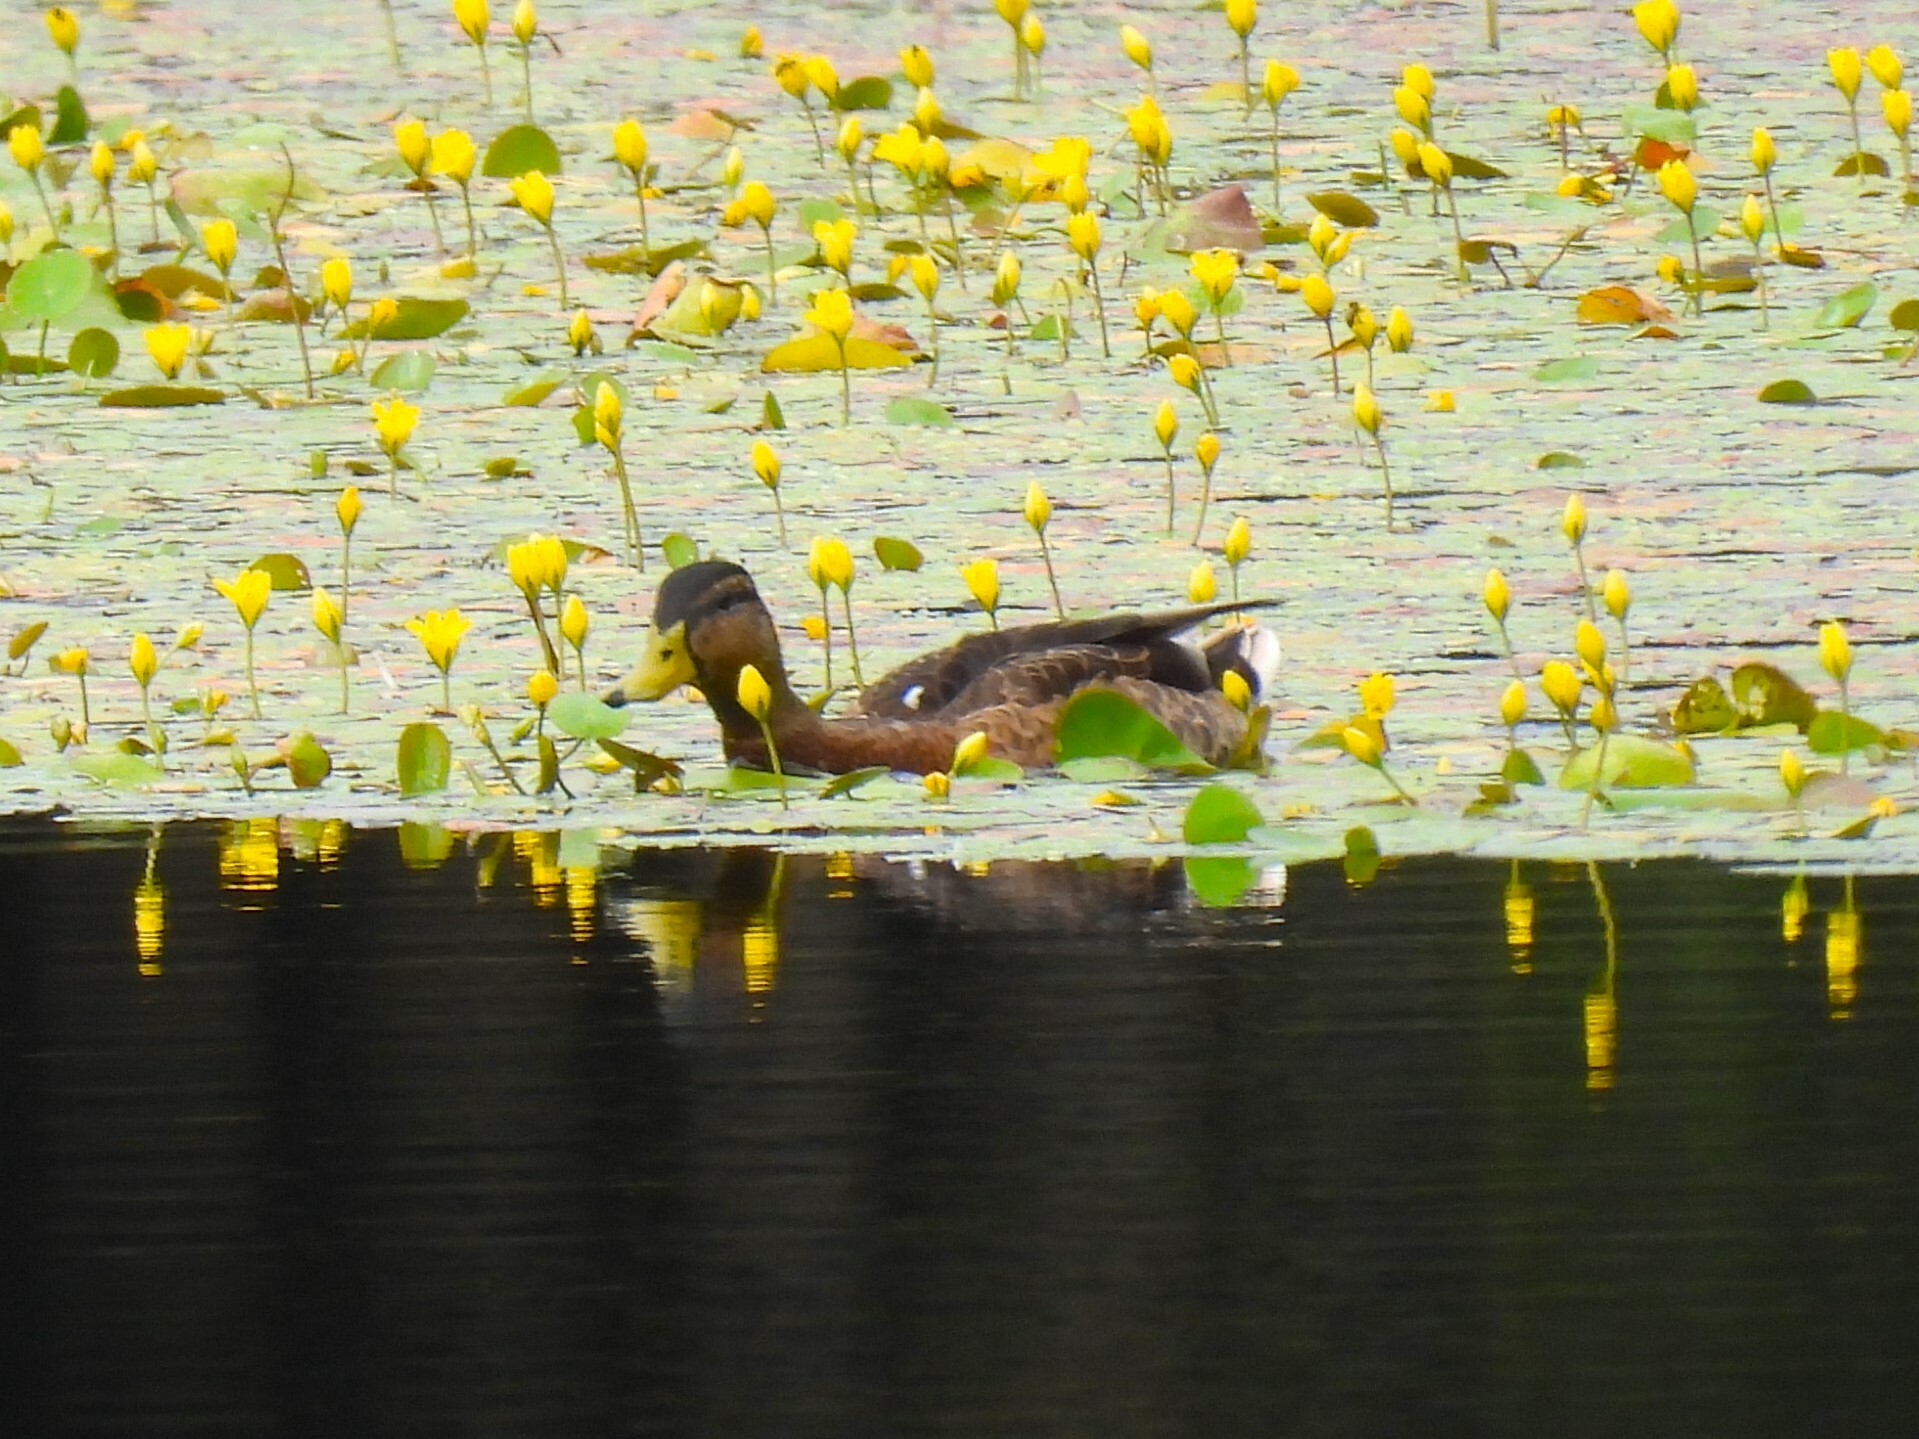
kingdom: Animalia
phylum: Chordata
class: Aves
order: Anseriformes
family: Anatidae
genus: Anas
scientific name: Anas platyrhynchos
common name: Mallard
